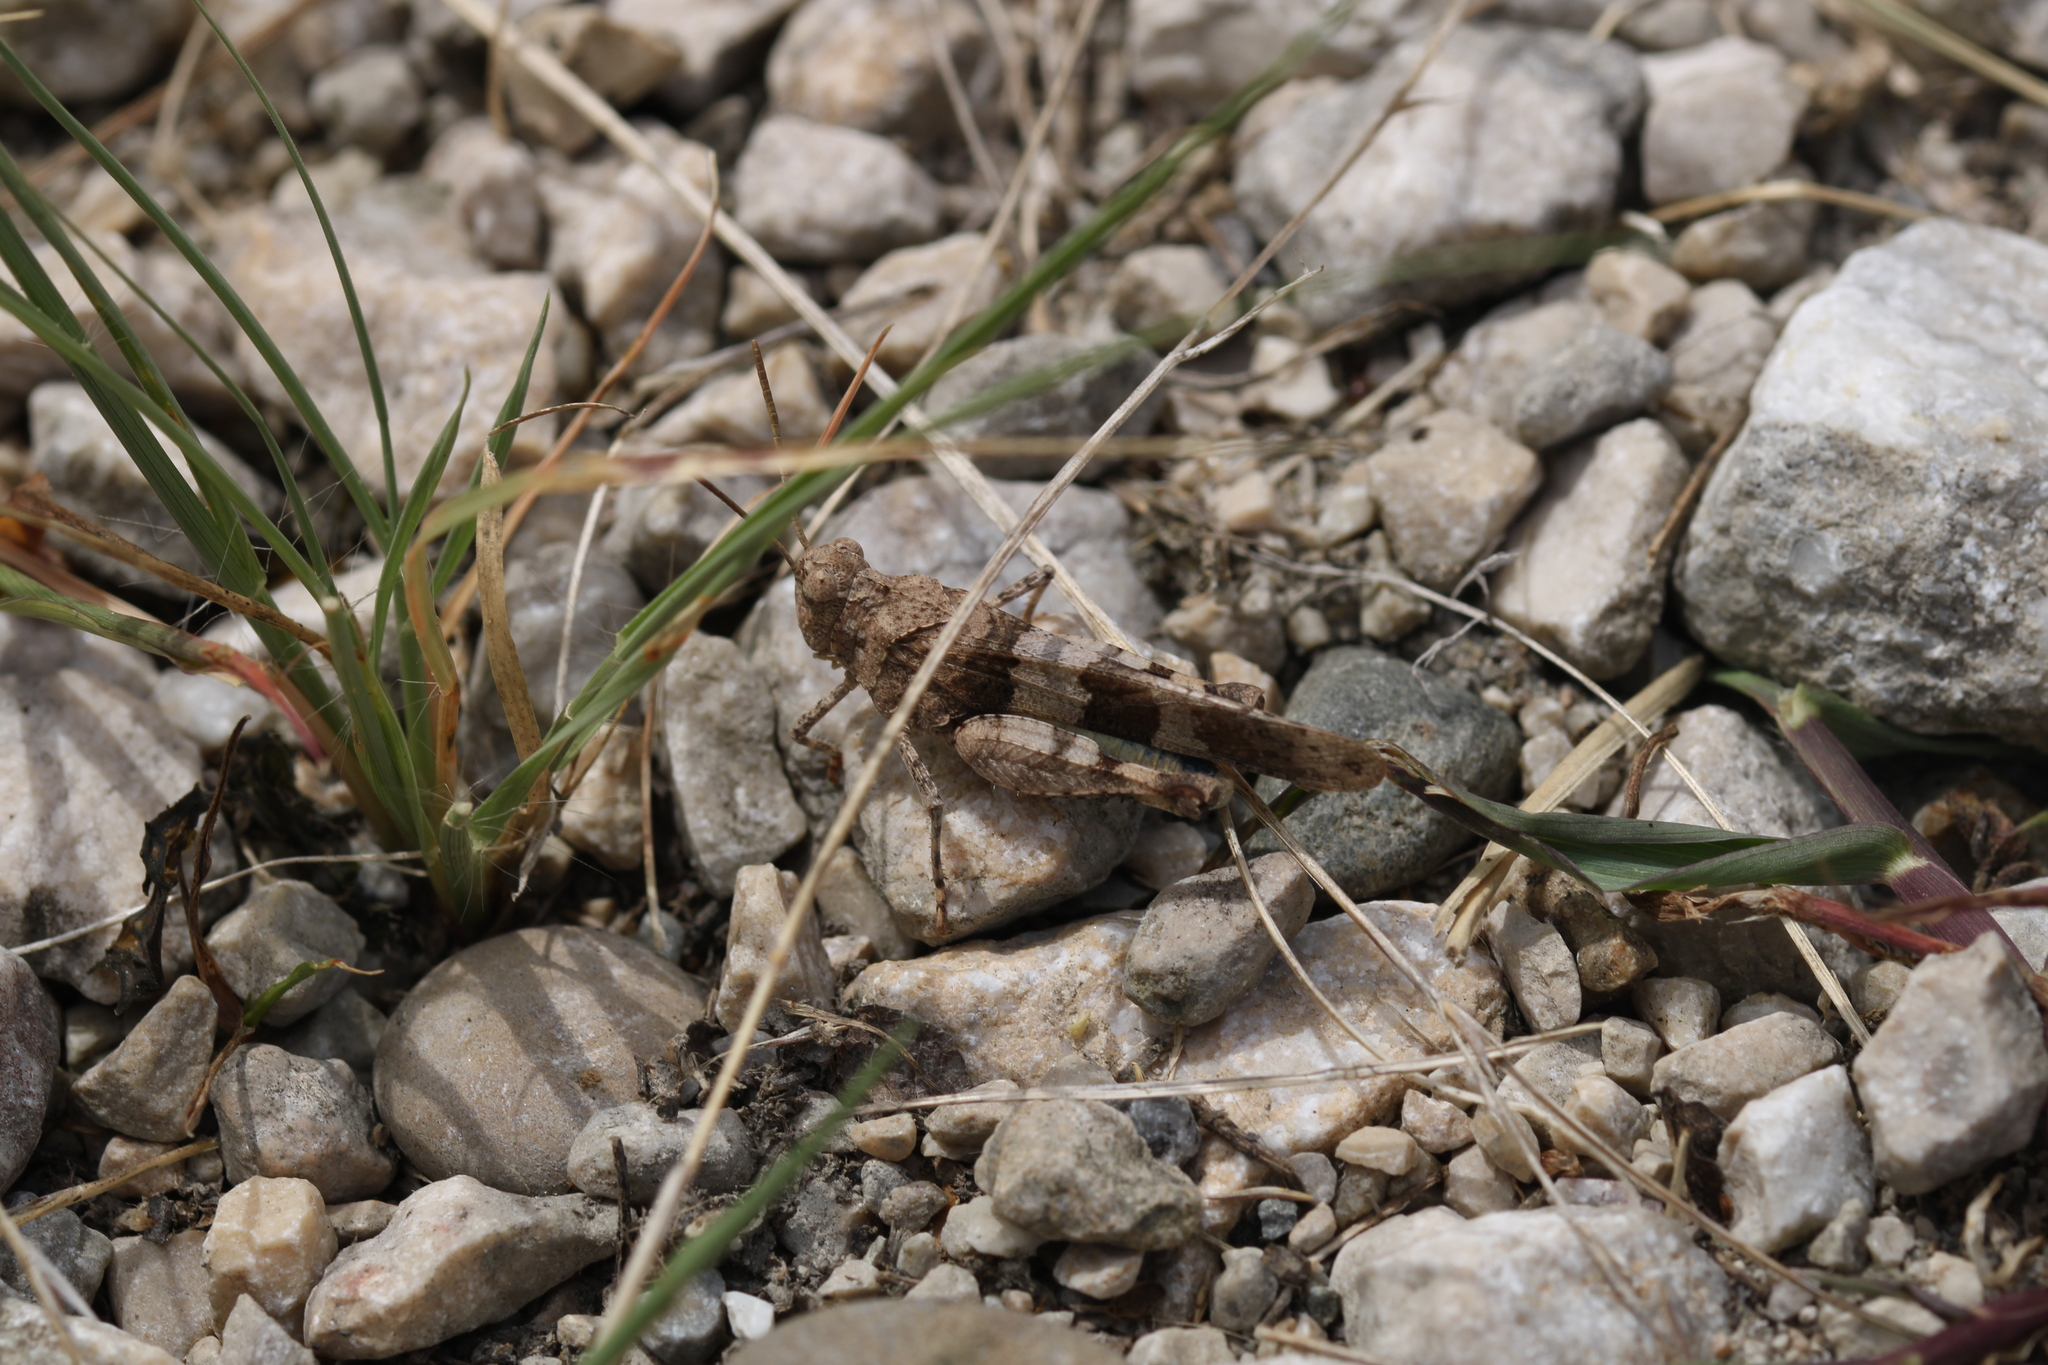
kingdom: Animalia
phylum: Arthropoda
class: Insecta
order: Orthoptera
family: Acrididae
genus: Oedipoda
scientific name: Oedipoda caerulescens
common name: Blue-winged grasshopper
